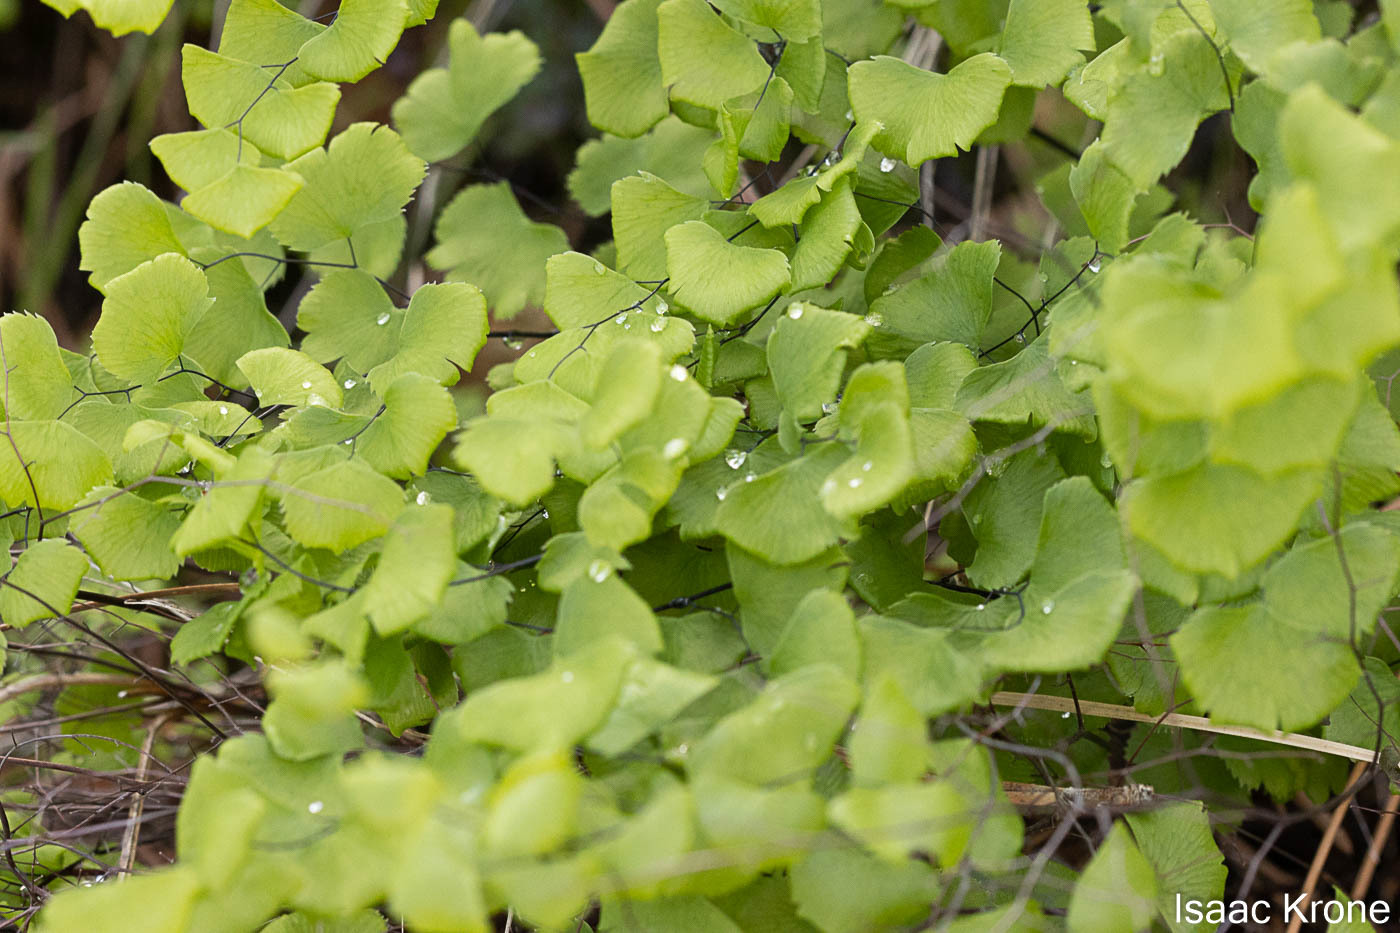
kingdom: Plantae
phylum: Tracheophyta
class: Polypodiopsida
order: Polypodiales
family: Pteridaceae
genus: Adiantum
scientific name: Adiantum jordanii
